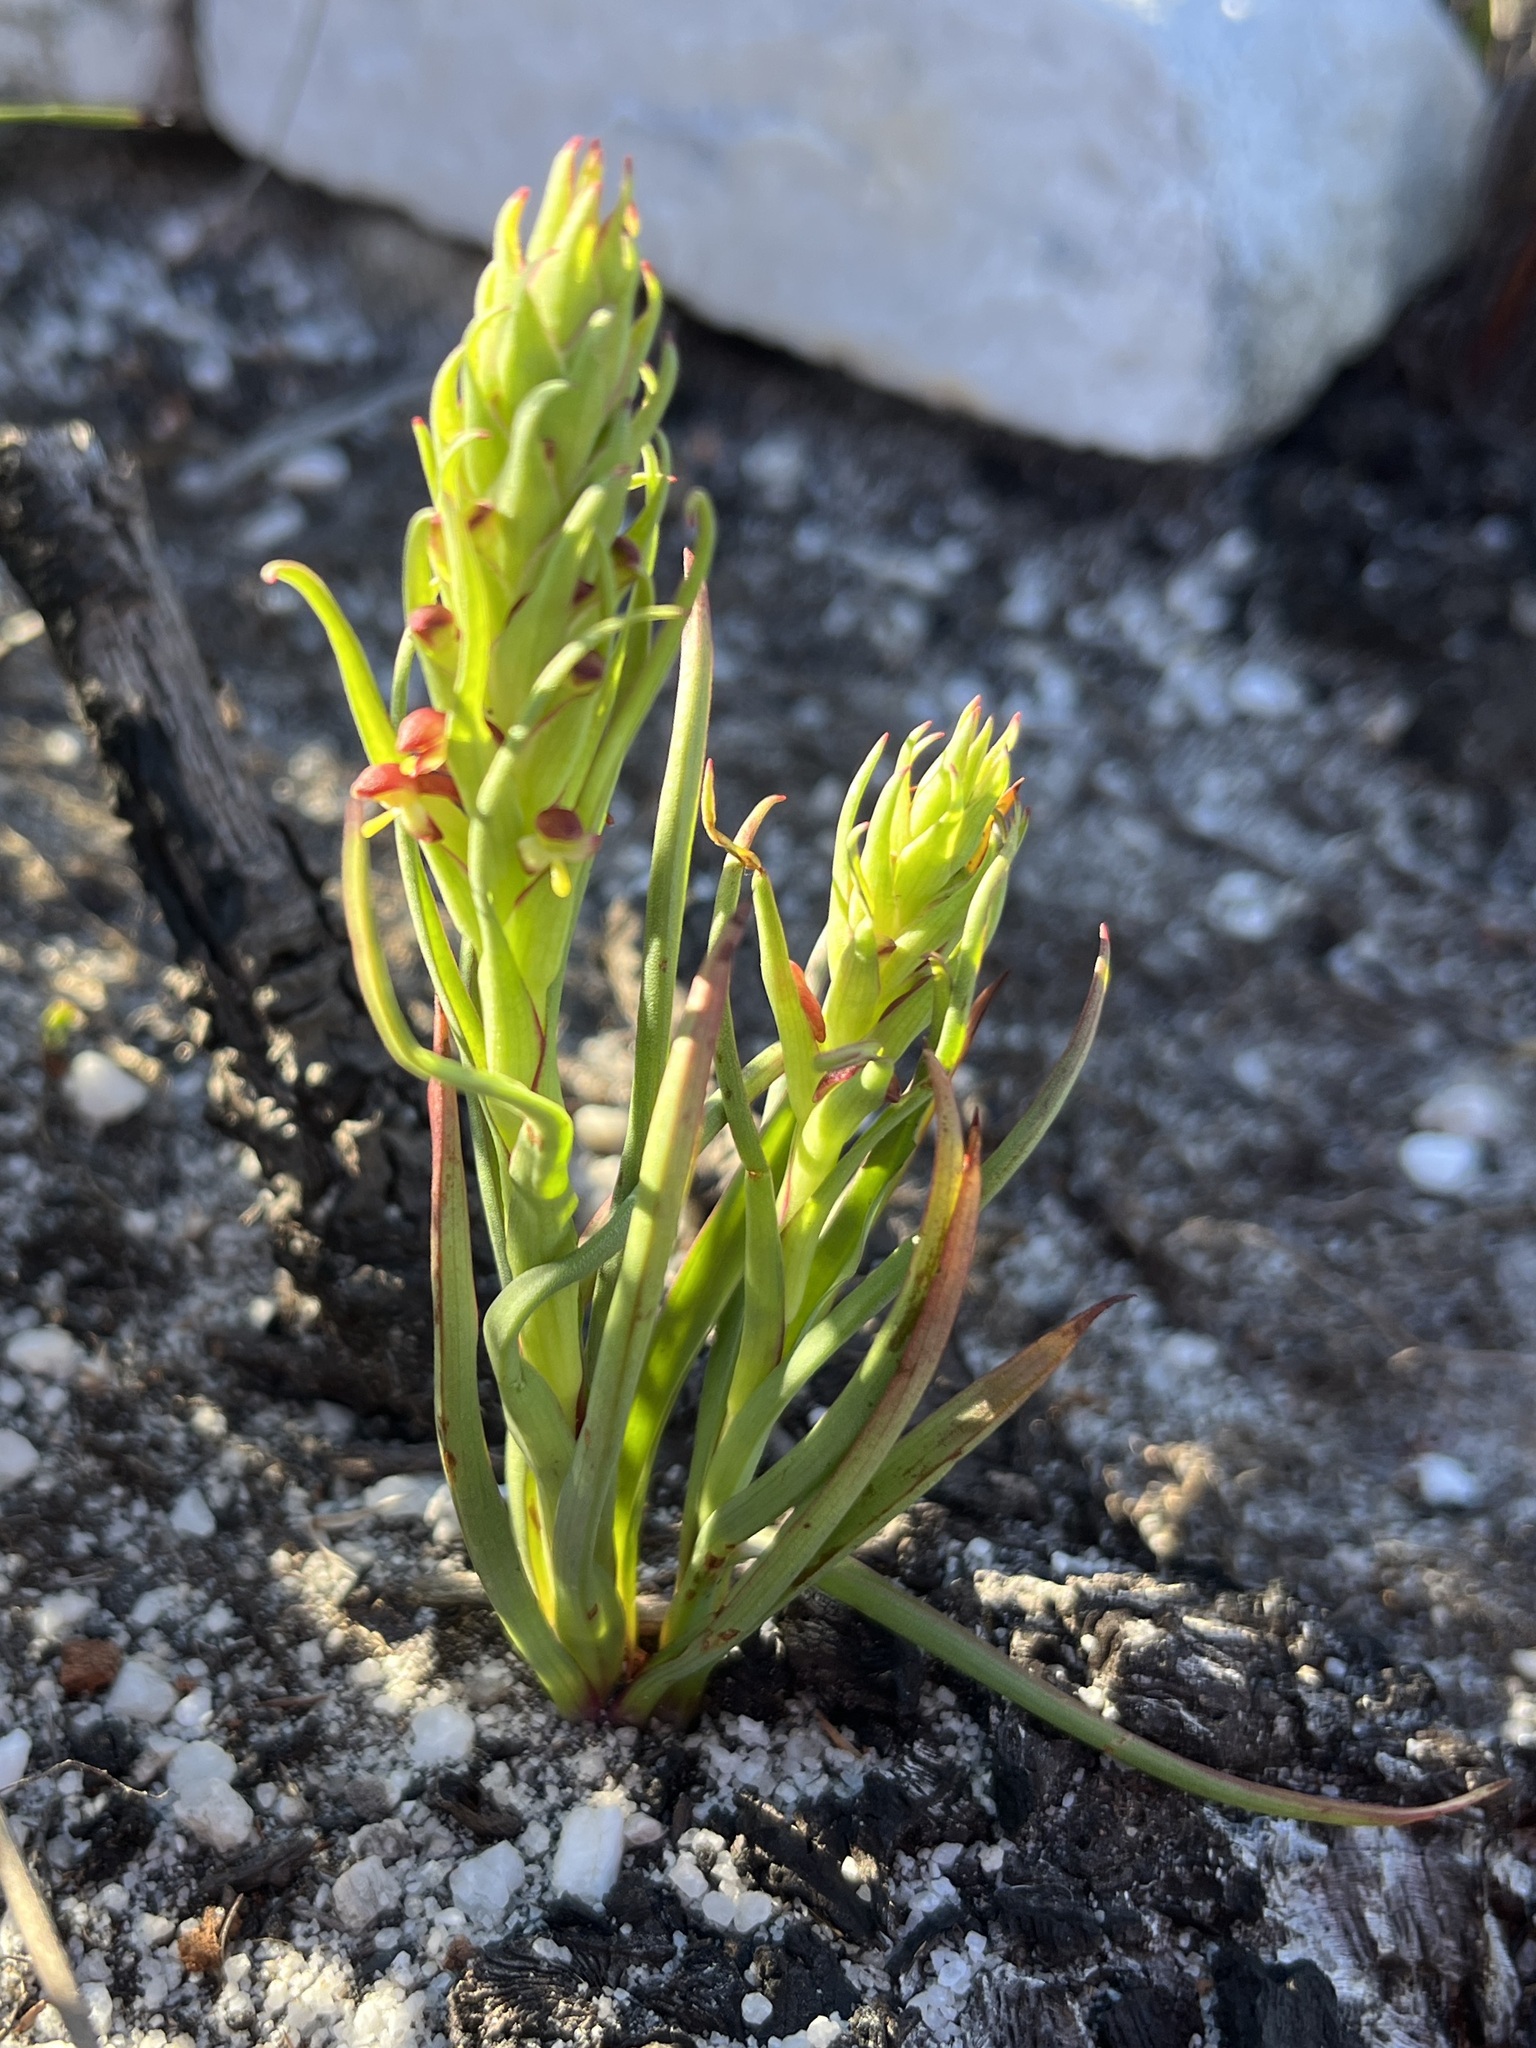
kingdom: Plantae
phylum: Tracheophyta
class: Liliopsida
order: Asparagales
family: Orchidaceae
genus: Disa
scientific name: Disa bracteata
